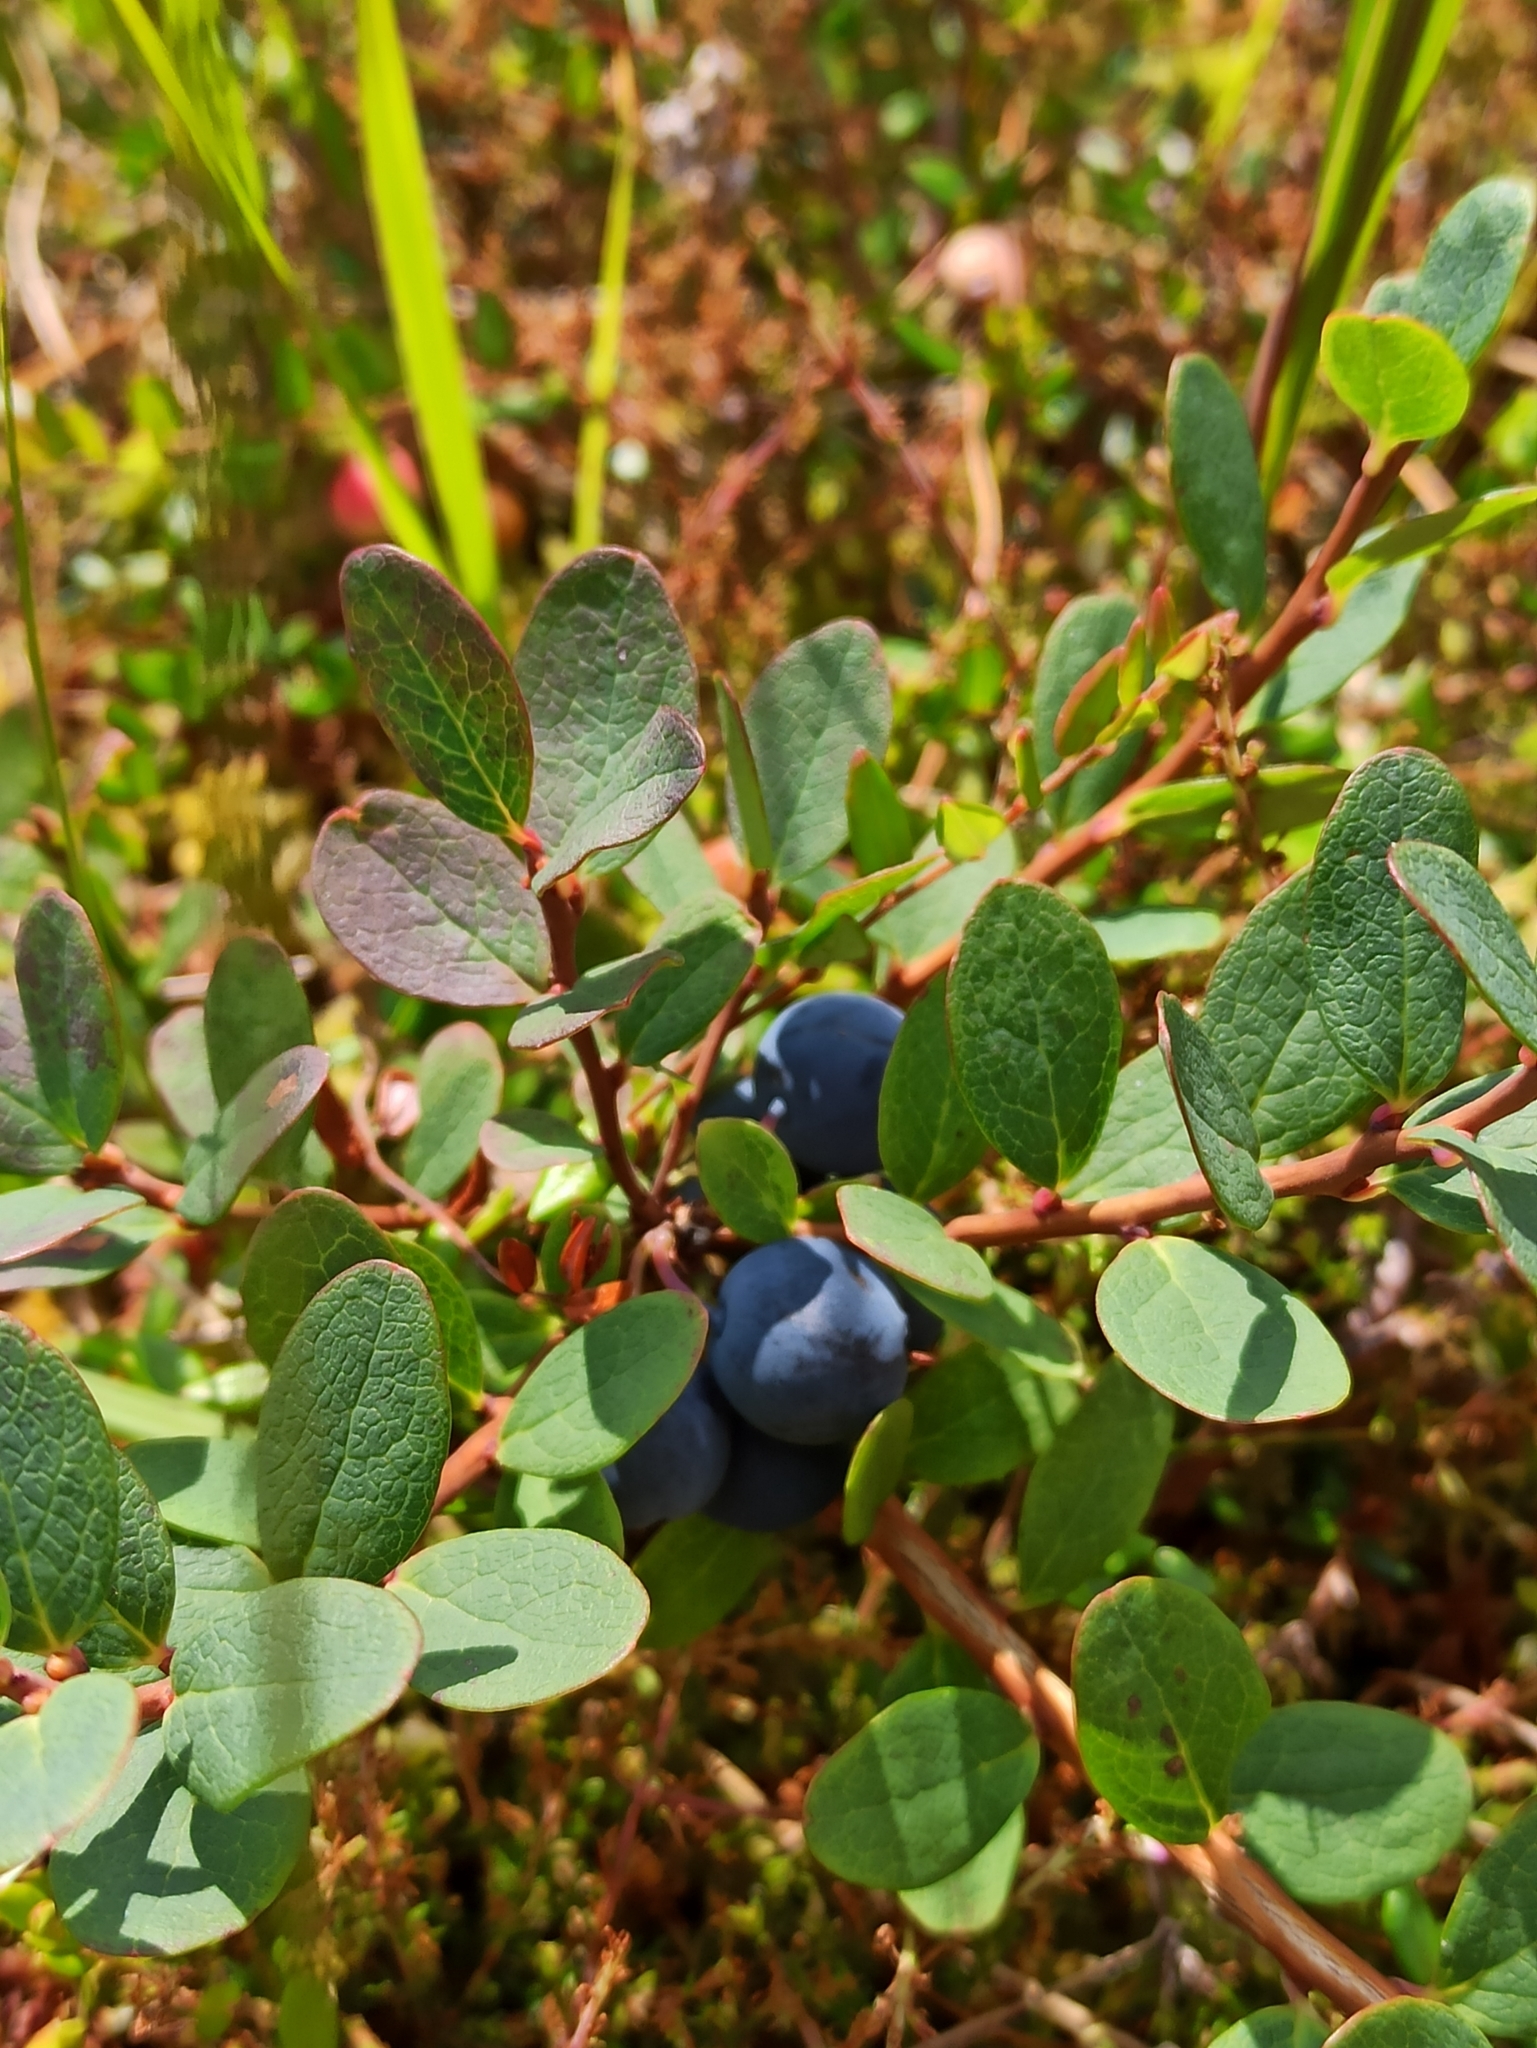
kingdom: Plantae
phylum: Tracheophyta
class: Magnoliopsida
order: Ericales
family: Ericaceae
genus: Vaccinium
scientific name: Vaccinium uliginosum
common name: Bog bilberry
